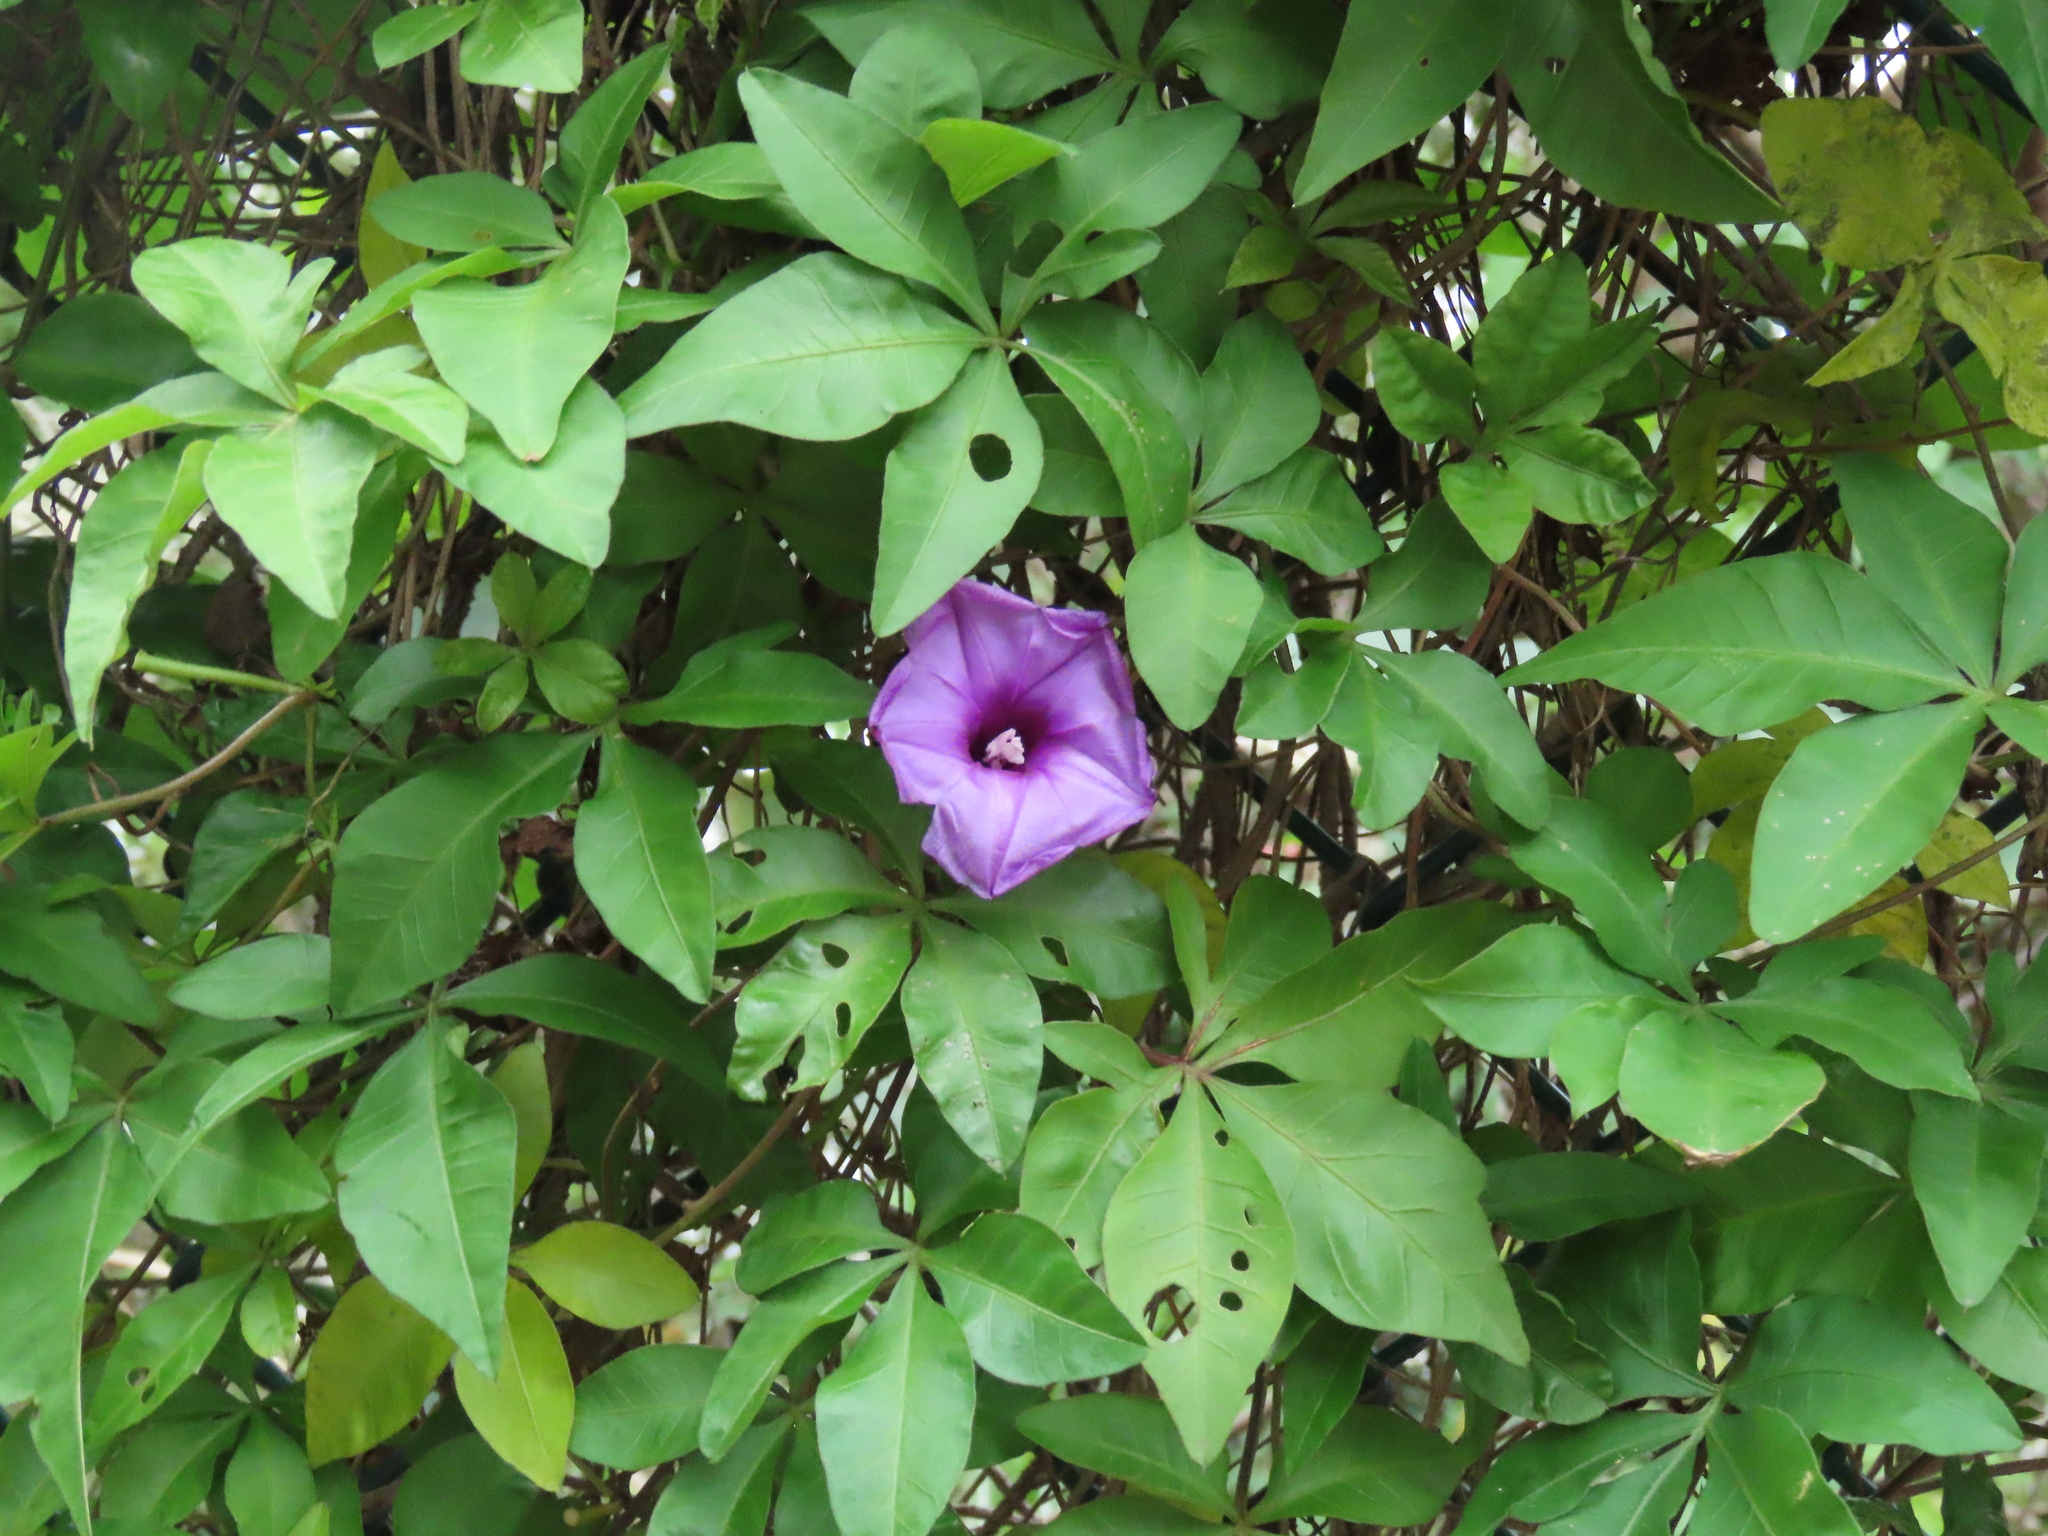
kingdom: Plantae
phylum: Tracheophyta
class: Magnoliopsida
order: Solanales
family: Convolvulaceae
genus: Ipomoea
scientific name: Ipomoea cairica
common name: Mile a minute vine
